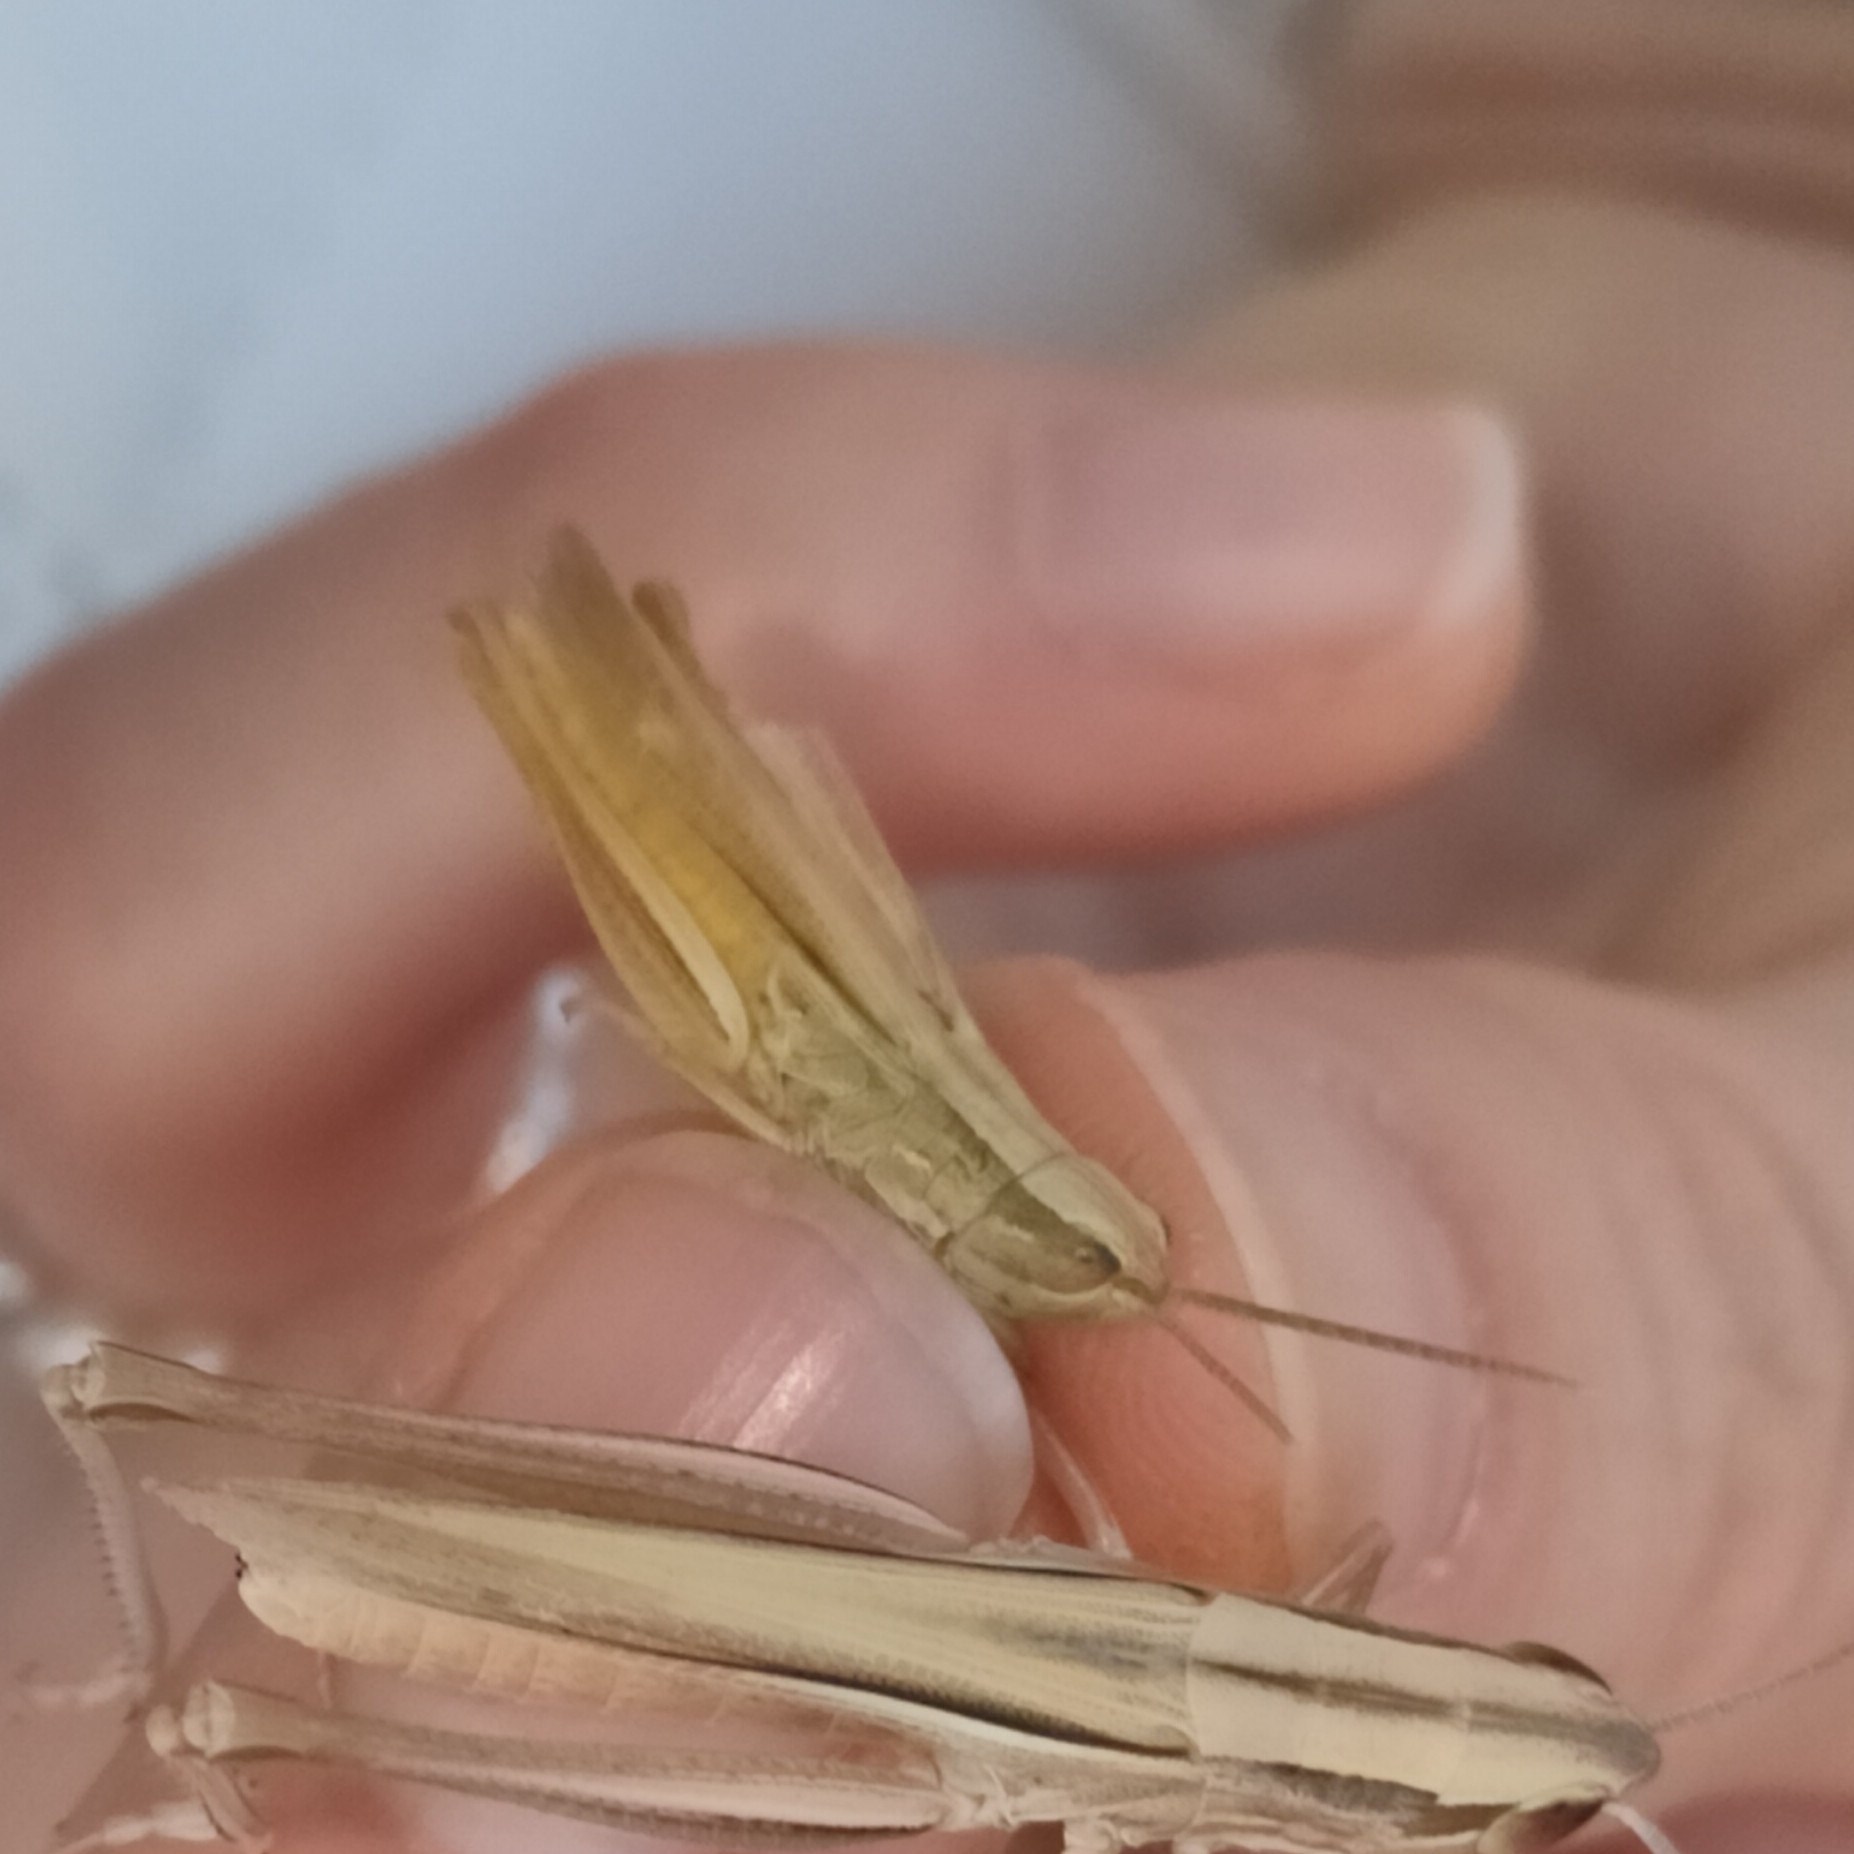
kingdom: Animalia
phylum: Arthropoda
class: Insecta
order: Orthoptera
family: Acrididae
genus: Euchorthippus
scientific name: Euchorthippus declivus
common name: Common straw grasshopper
